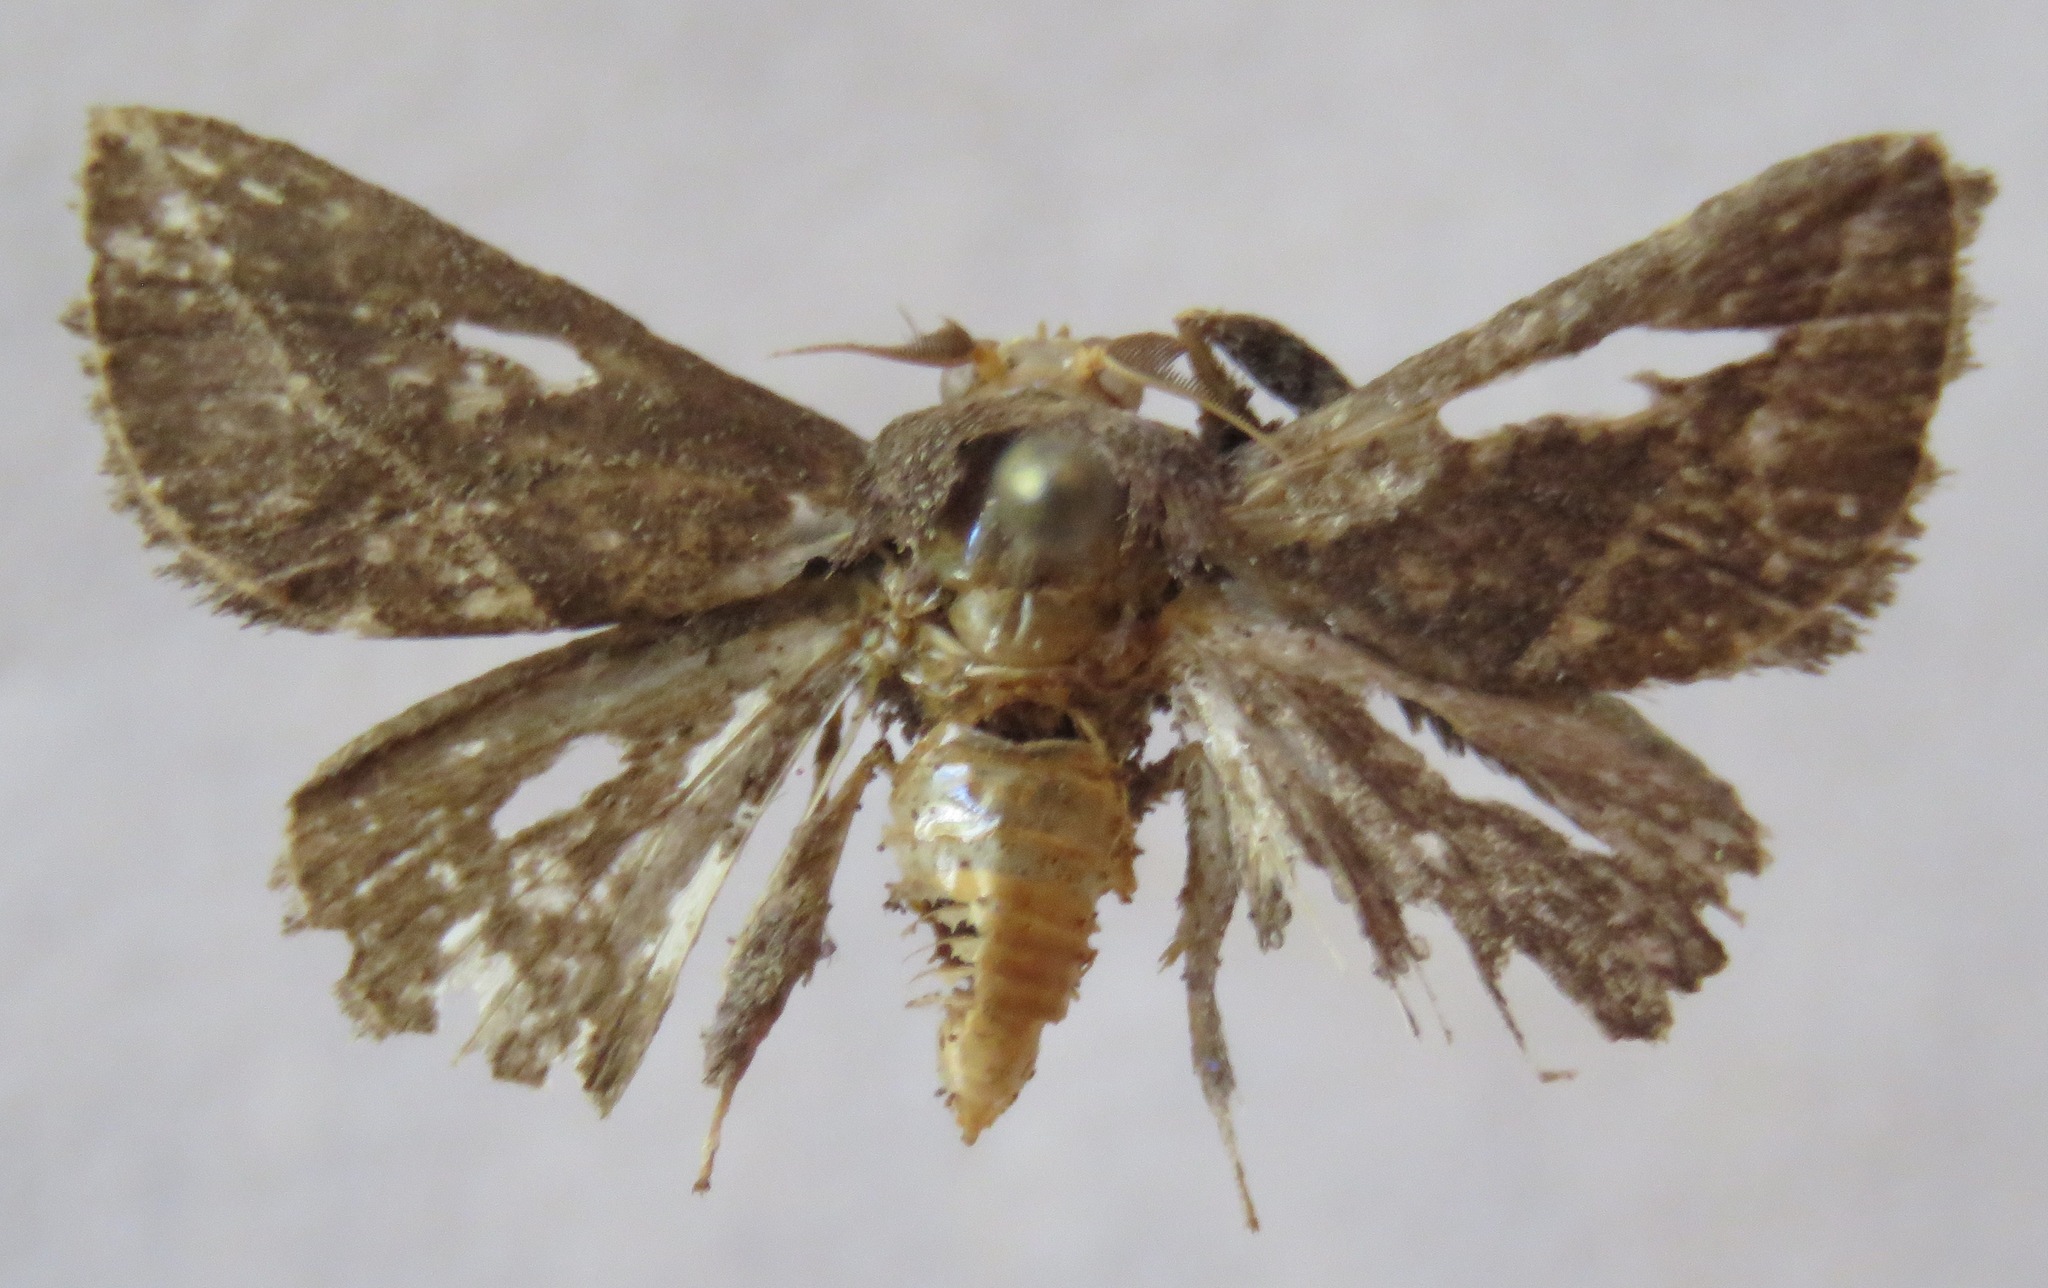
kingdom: Animalia
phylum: Arthropoda
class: Insecta
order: Lepidoptera
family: Limacodidae
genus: Epiperola
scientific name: Epiperola vafera
